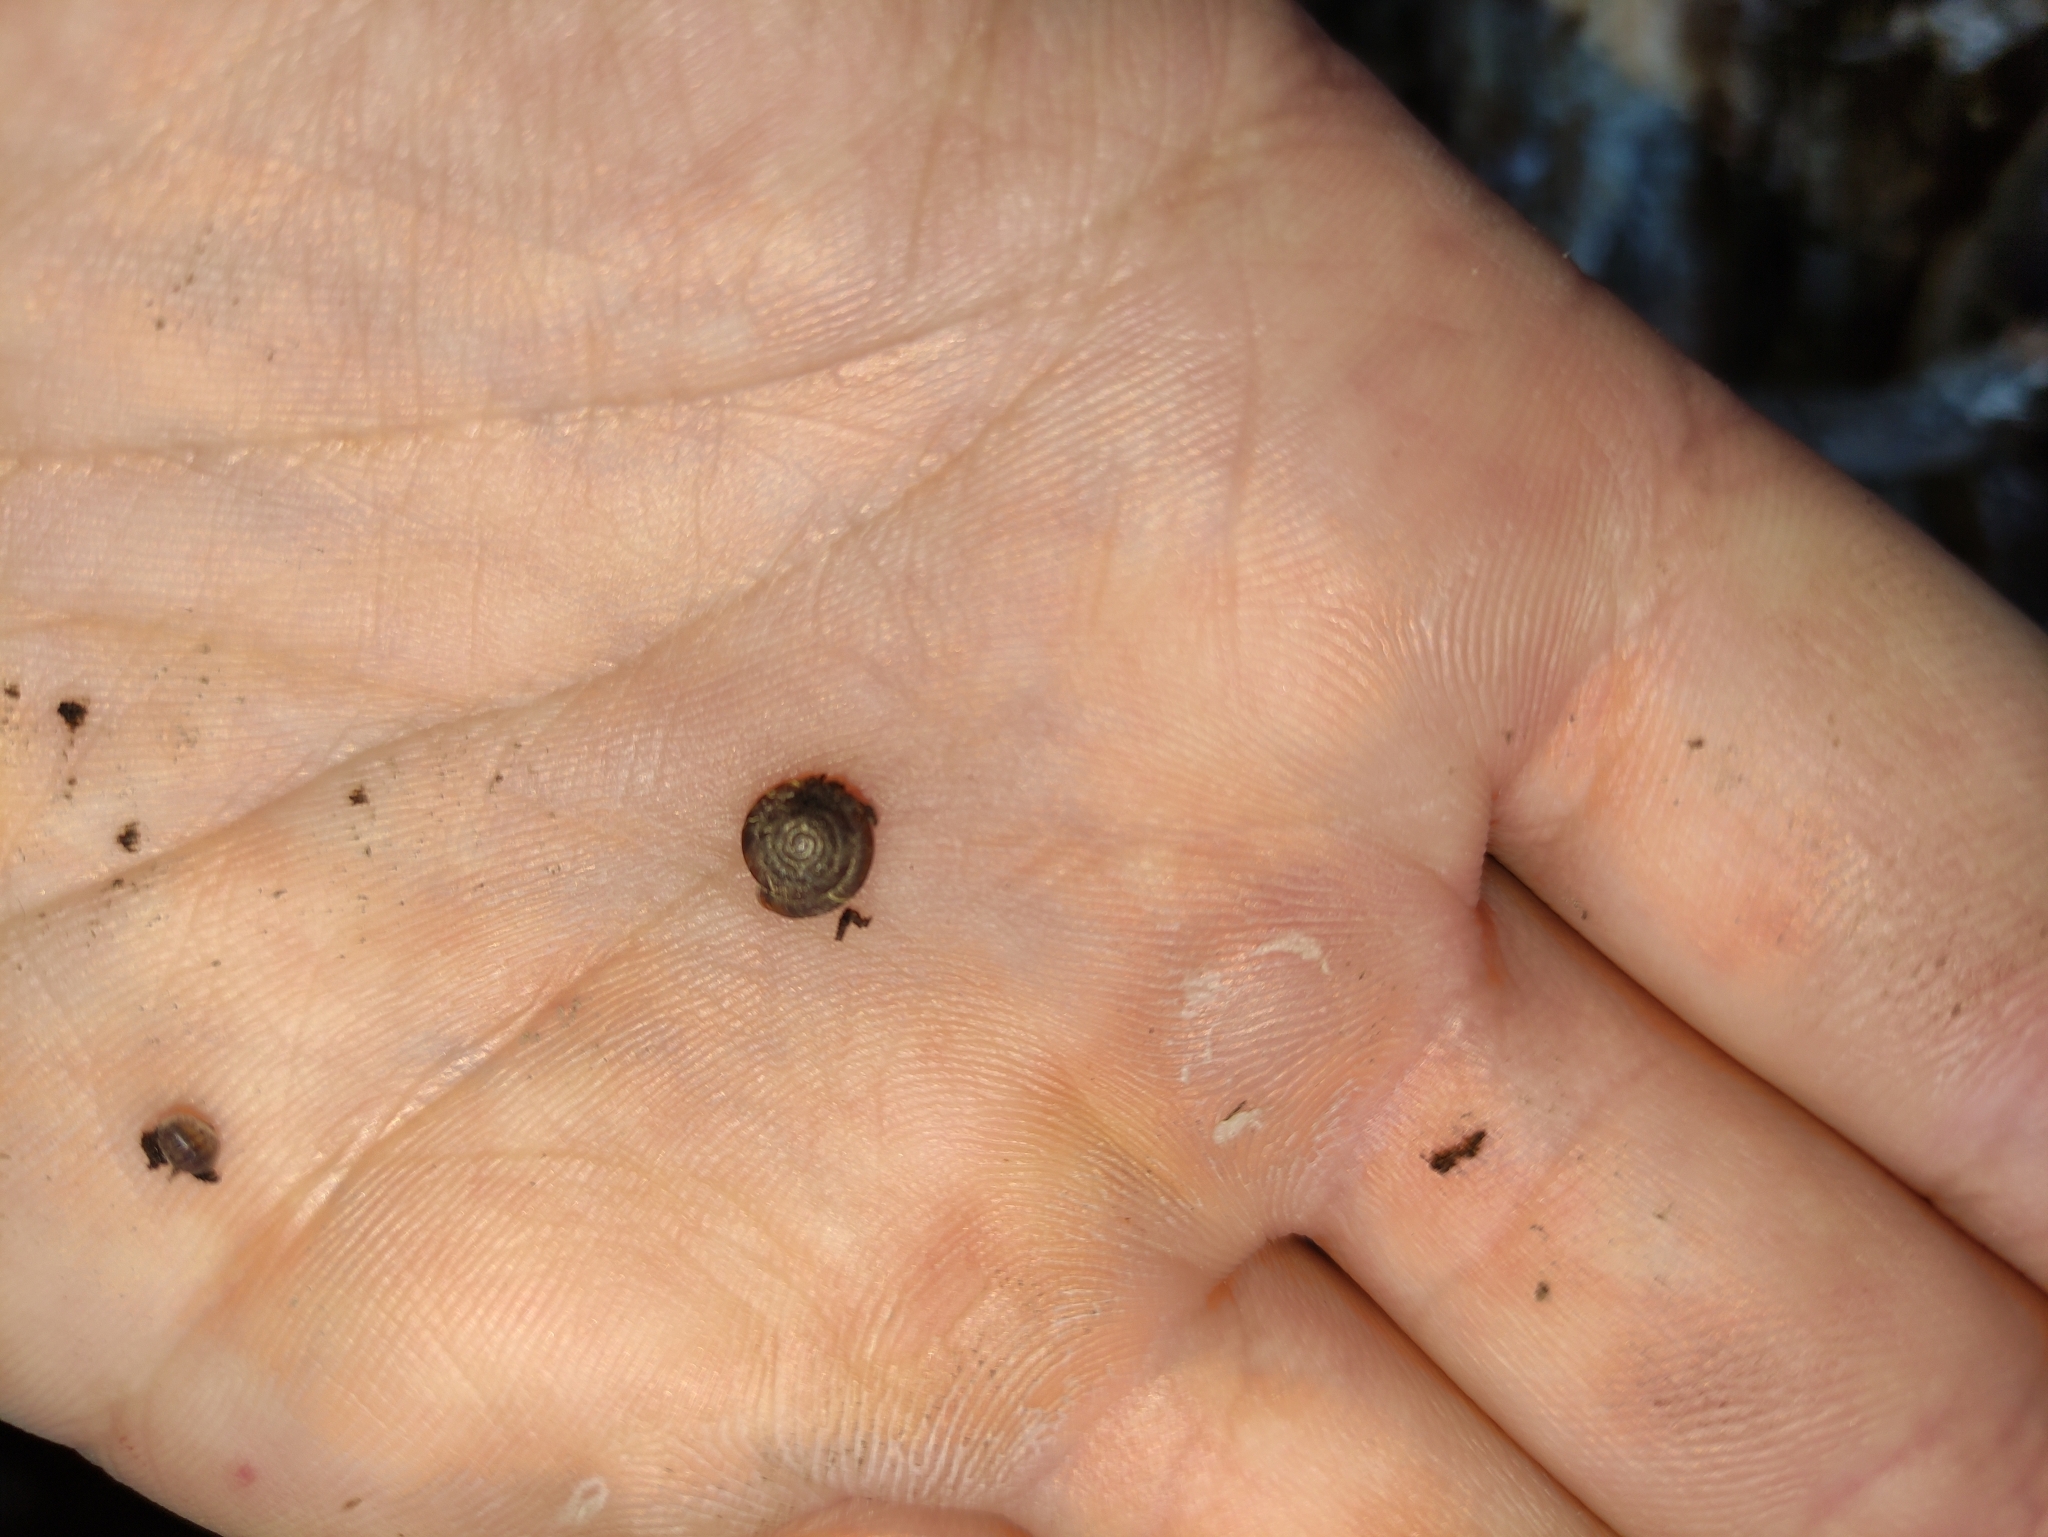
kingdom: Animalia
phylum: Mollusca
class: Gastropoda
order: Stylommatophora
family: Discidae
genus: Discus
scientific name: Discus rotundatus
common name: Rounded snail
